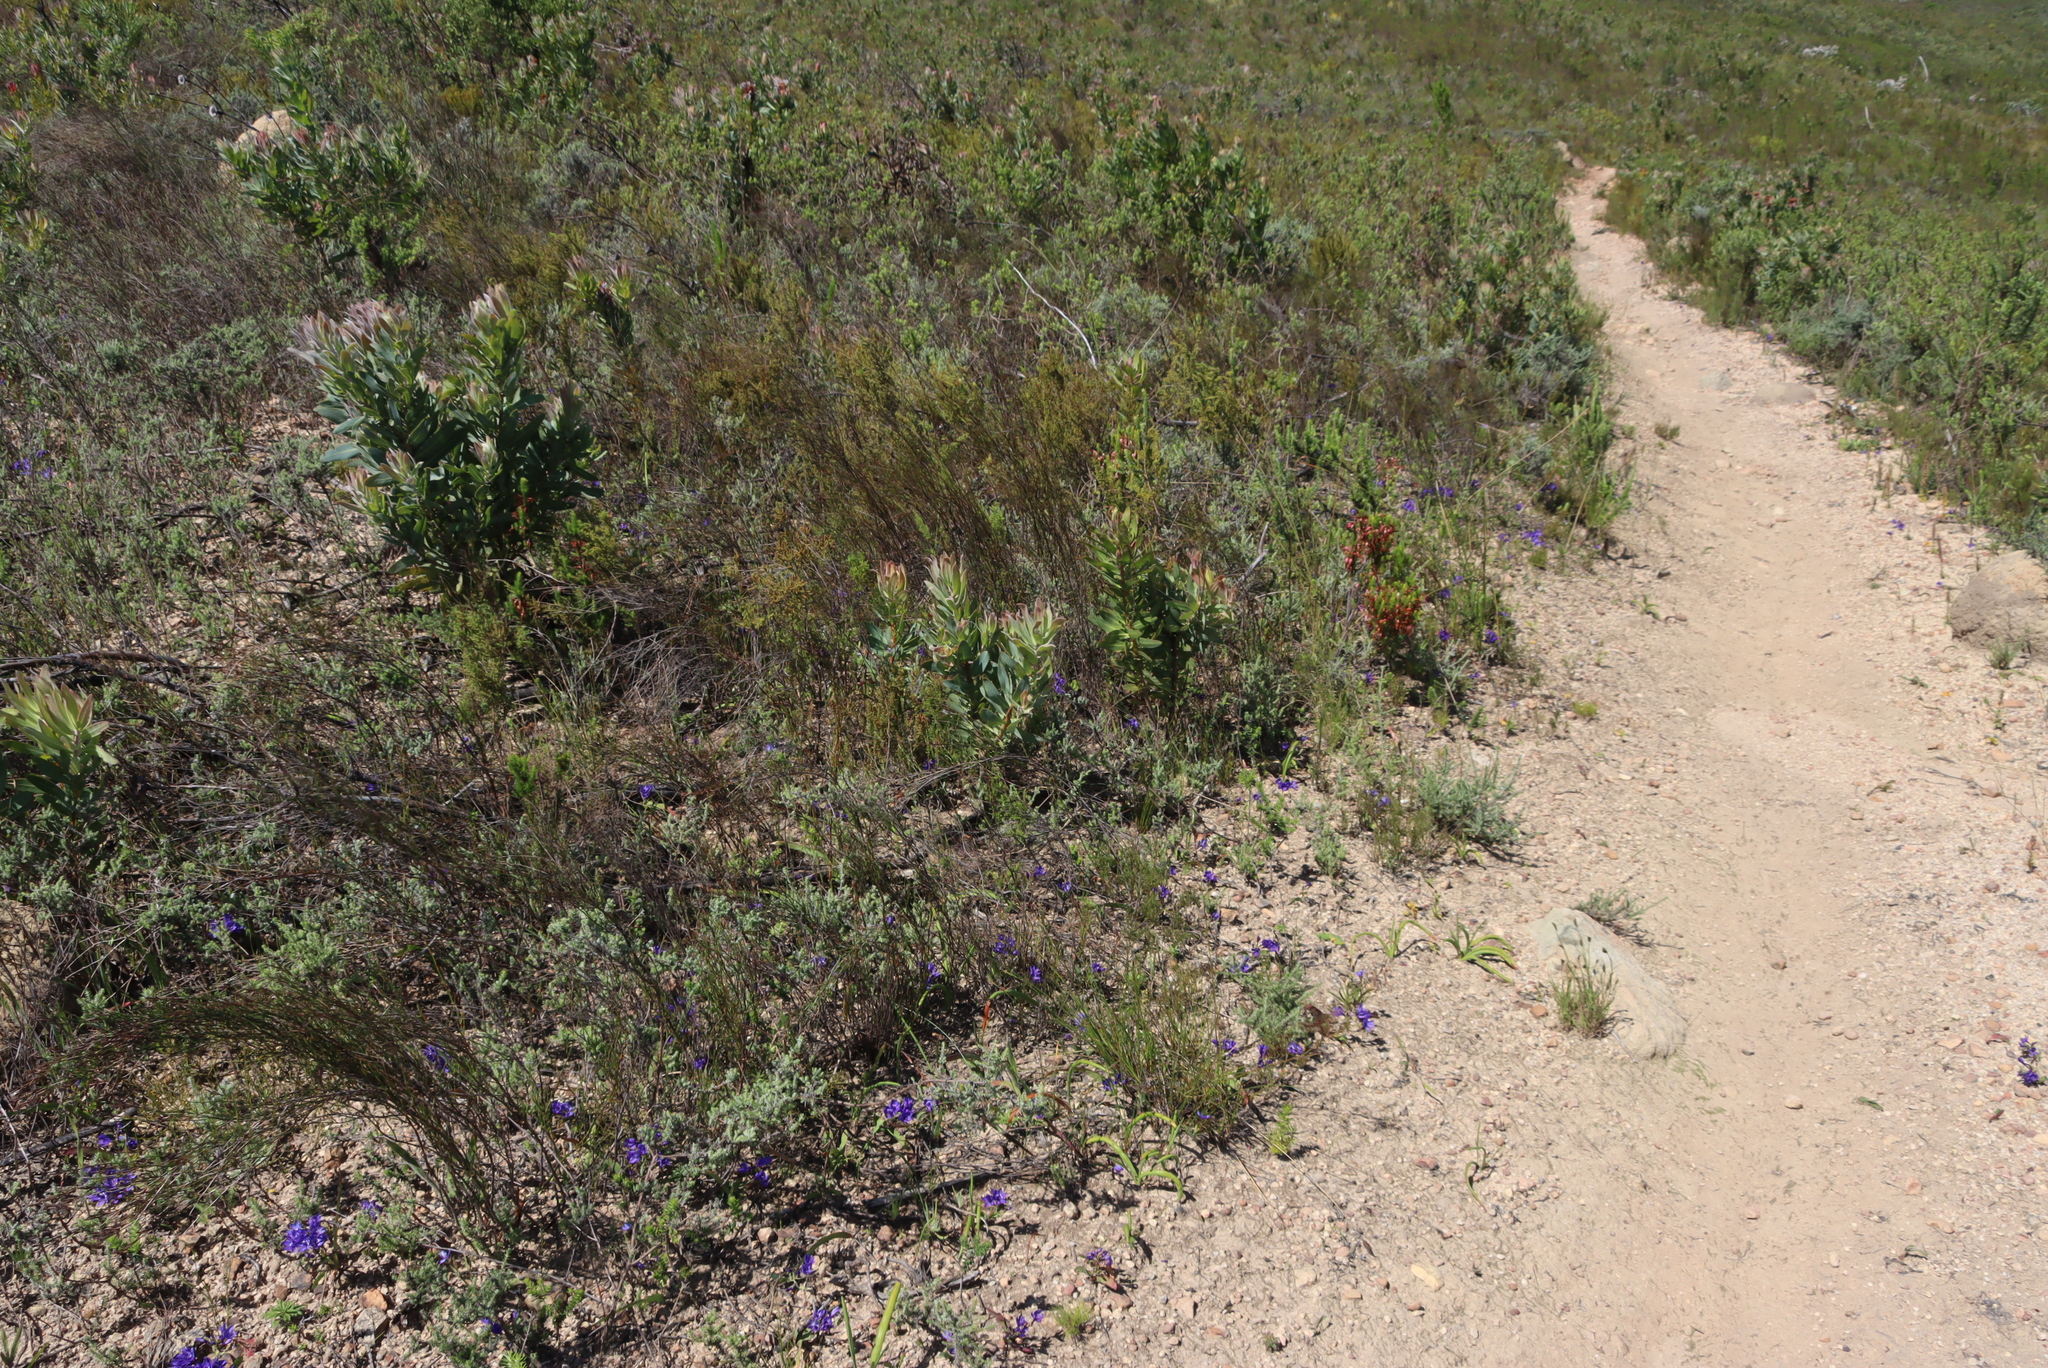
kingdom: Plantae
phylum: Tracheophyta
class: Liliopsida
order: Asparagales
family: Iridaceae
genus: Codonorhiza
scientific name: Codonorhiza elandsmontana
